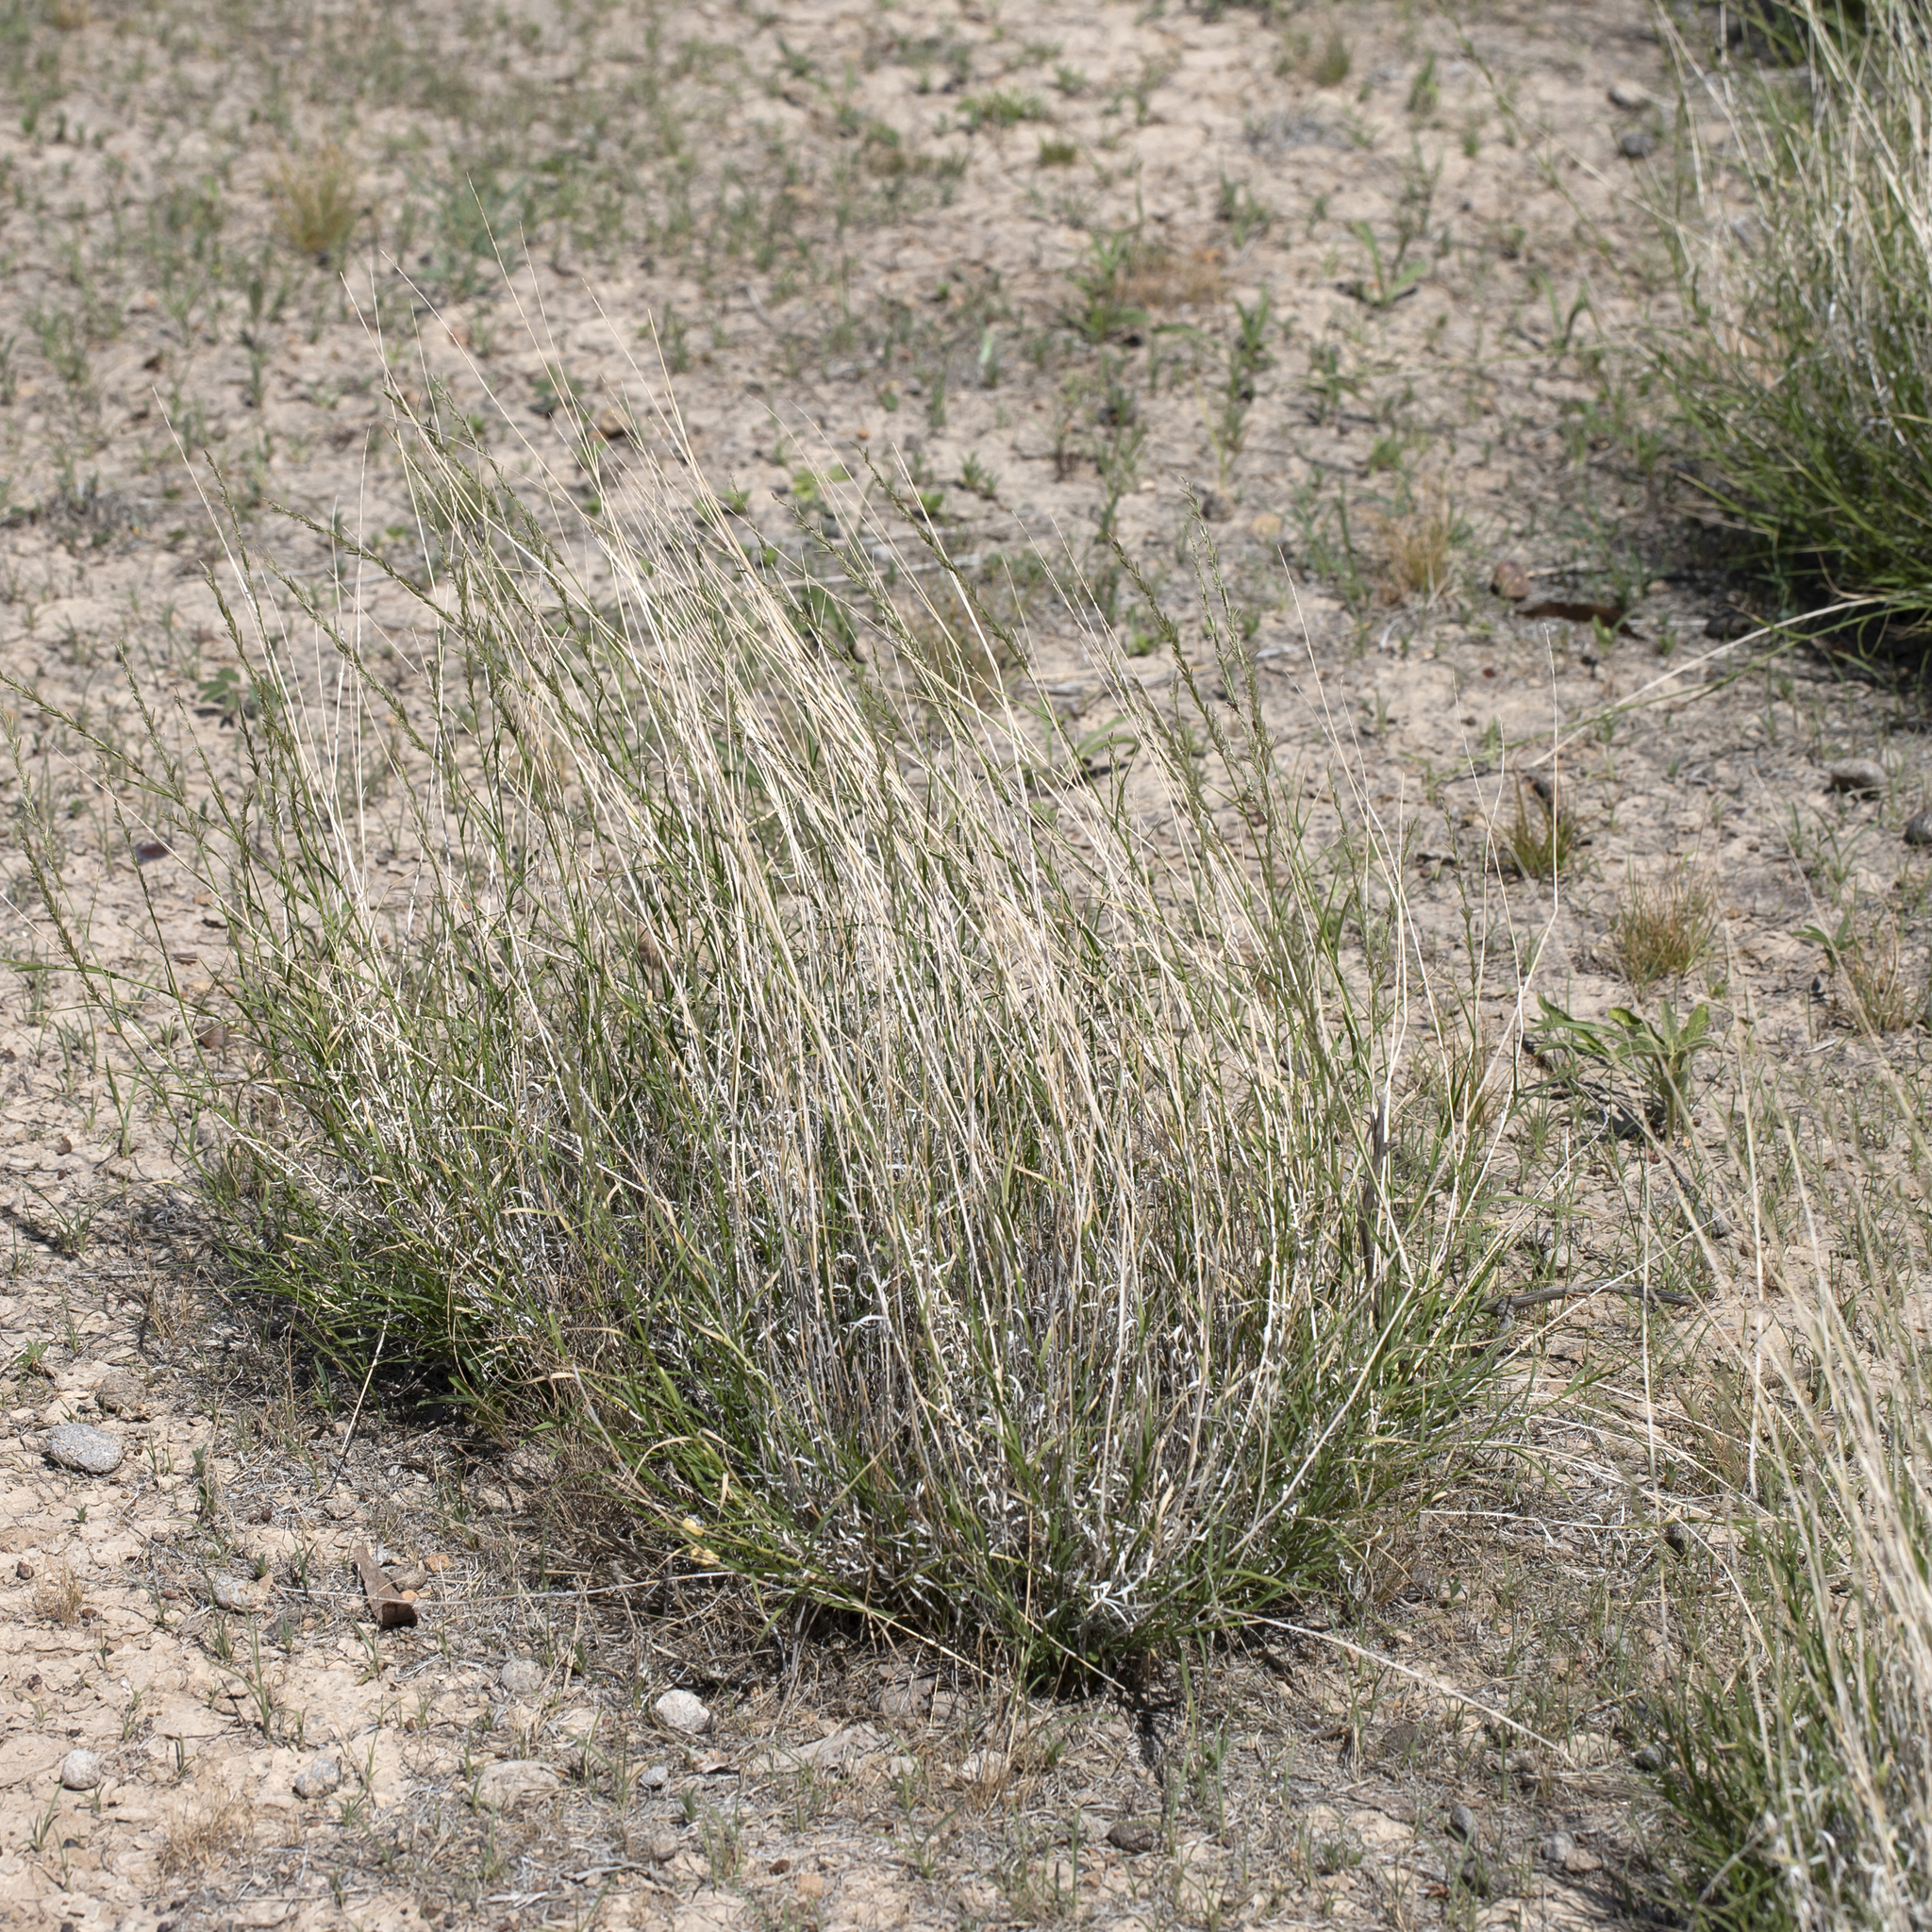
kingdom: Plantae
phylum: Tracheophyta
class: Liliopsida
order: Poales
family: Poaceae
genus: Eragrostis
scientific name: Eragrostis xerophila
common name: Wire wandarrie grass
